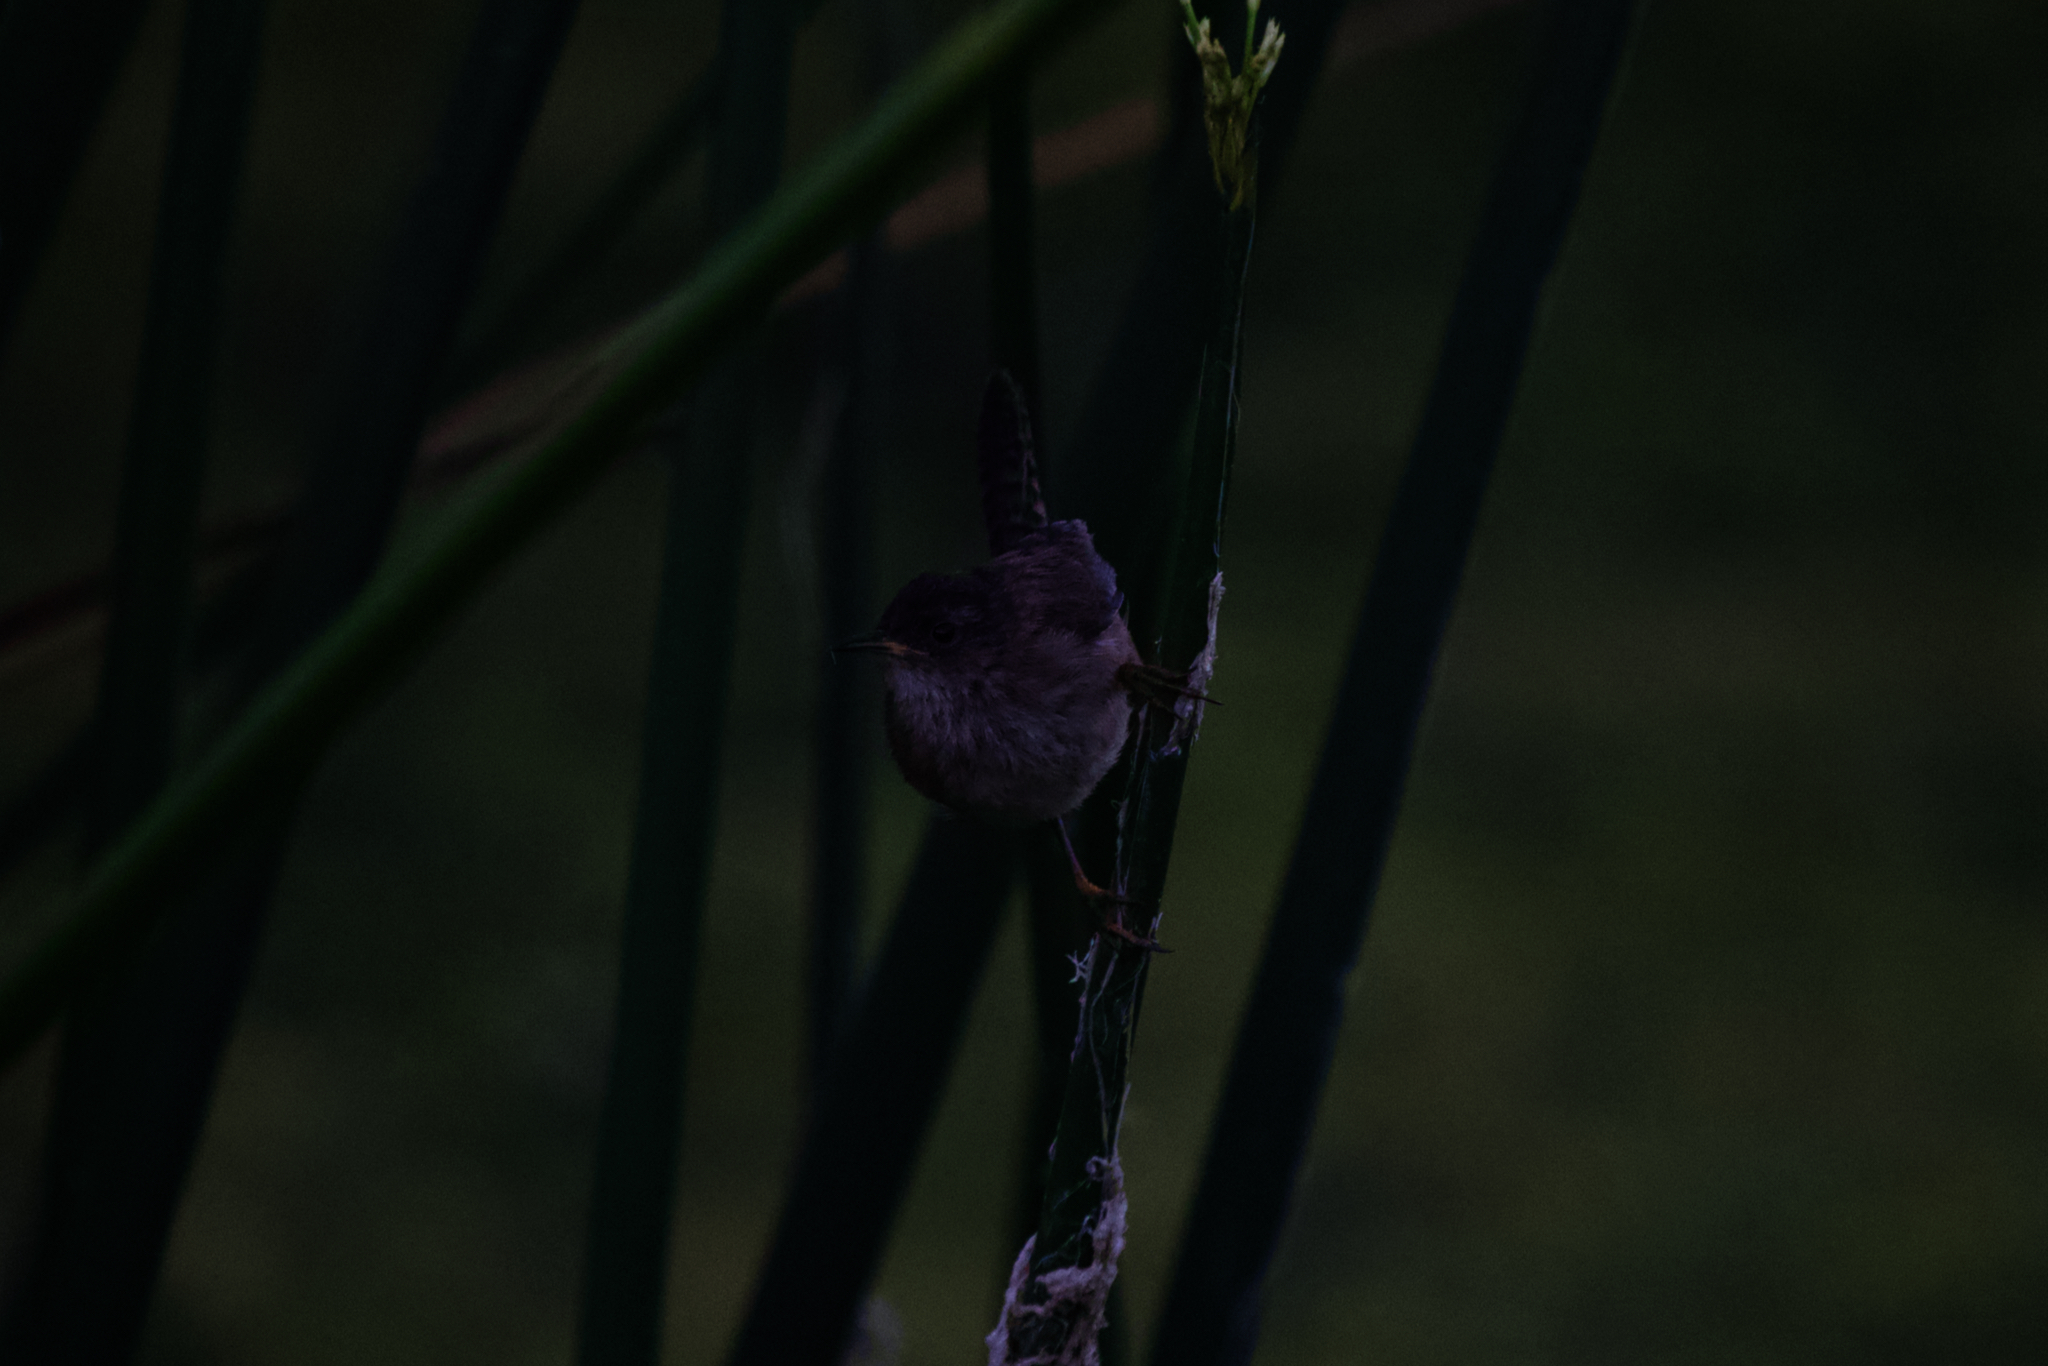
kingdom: Animalia
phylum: Chordata
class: Aves
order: Passeriformes
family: Troglodytidae
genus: Cistothorus
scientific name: Cistothorus palustris
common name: Marsh wren
